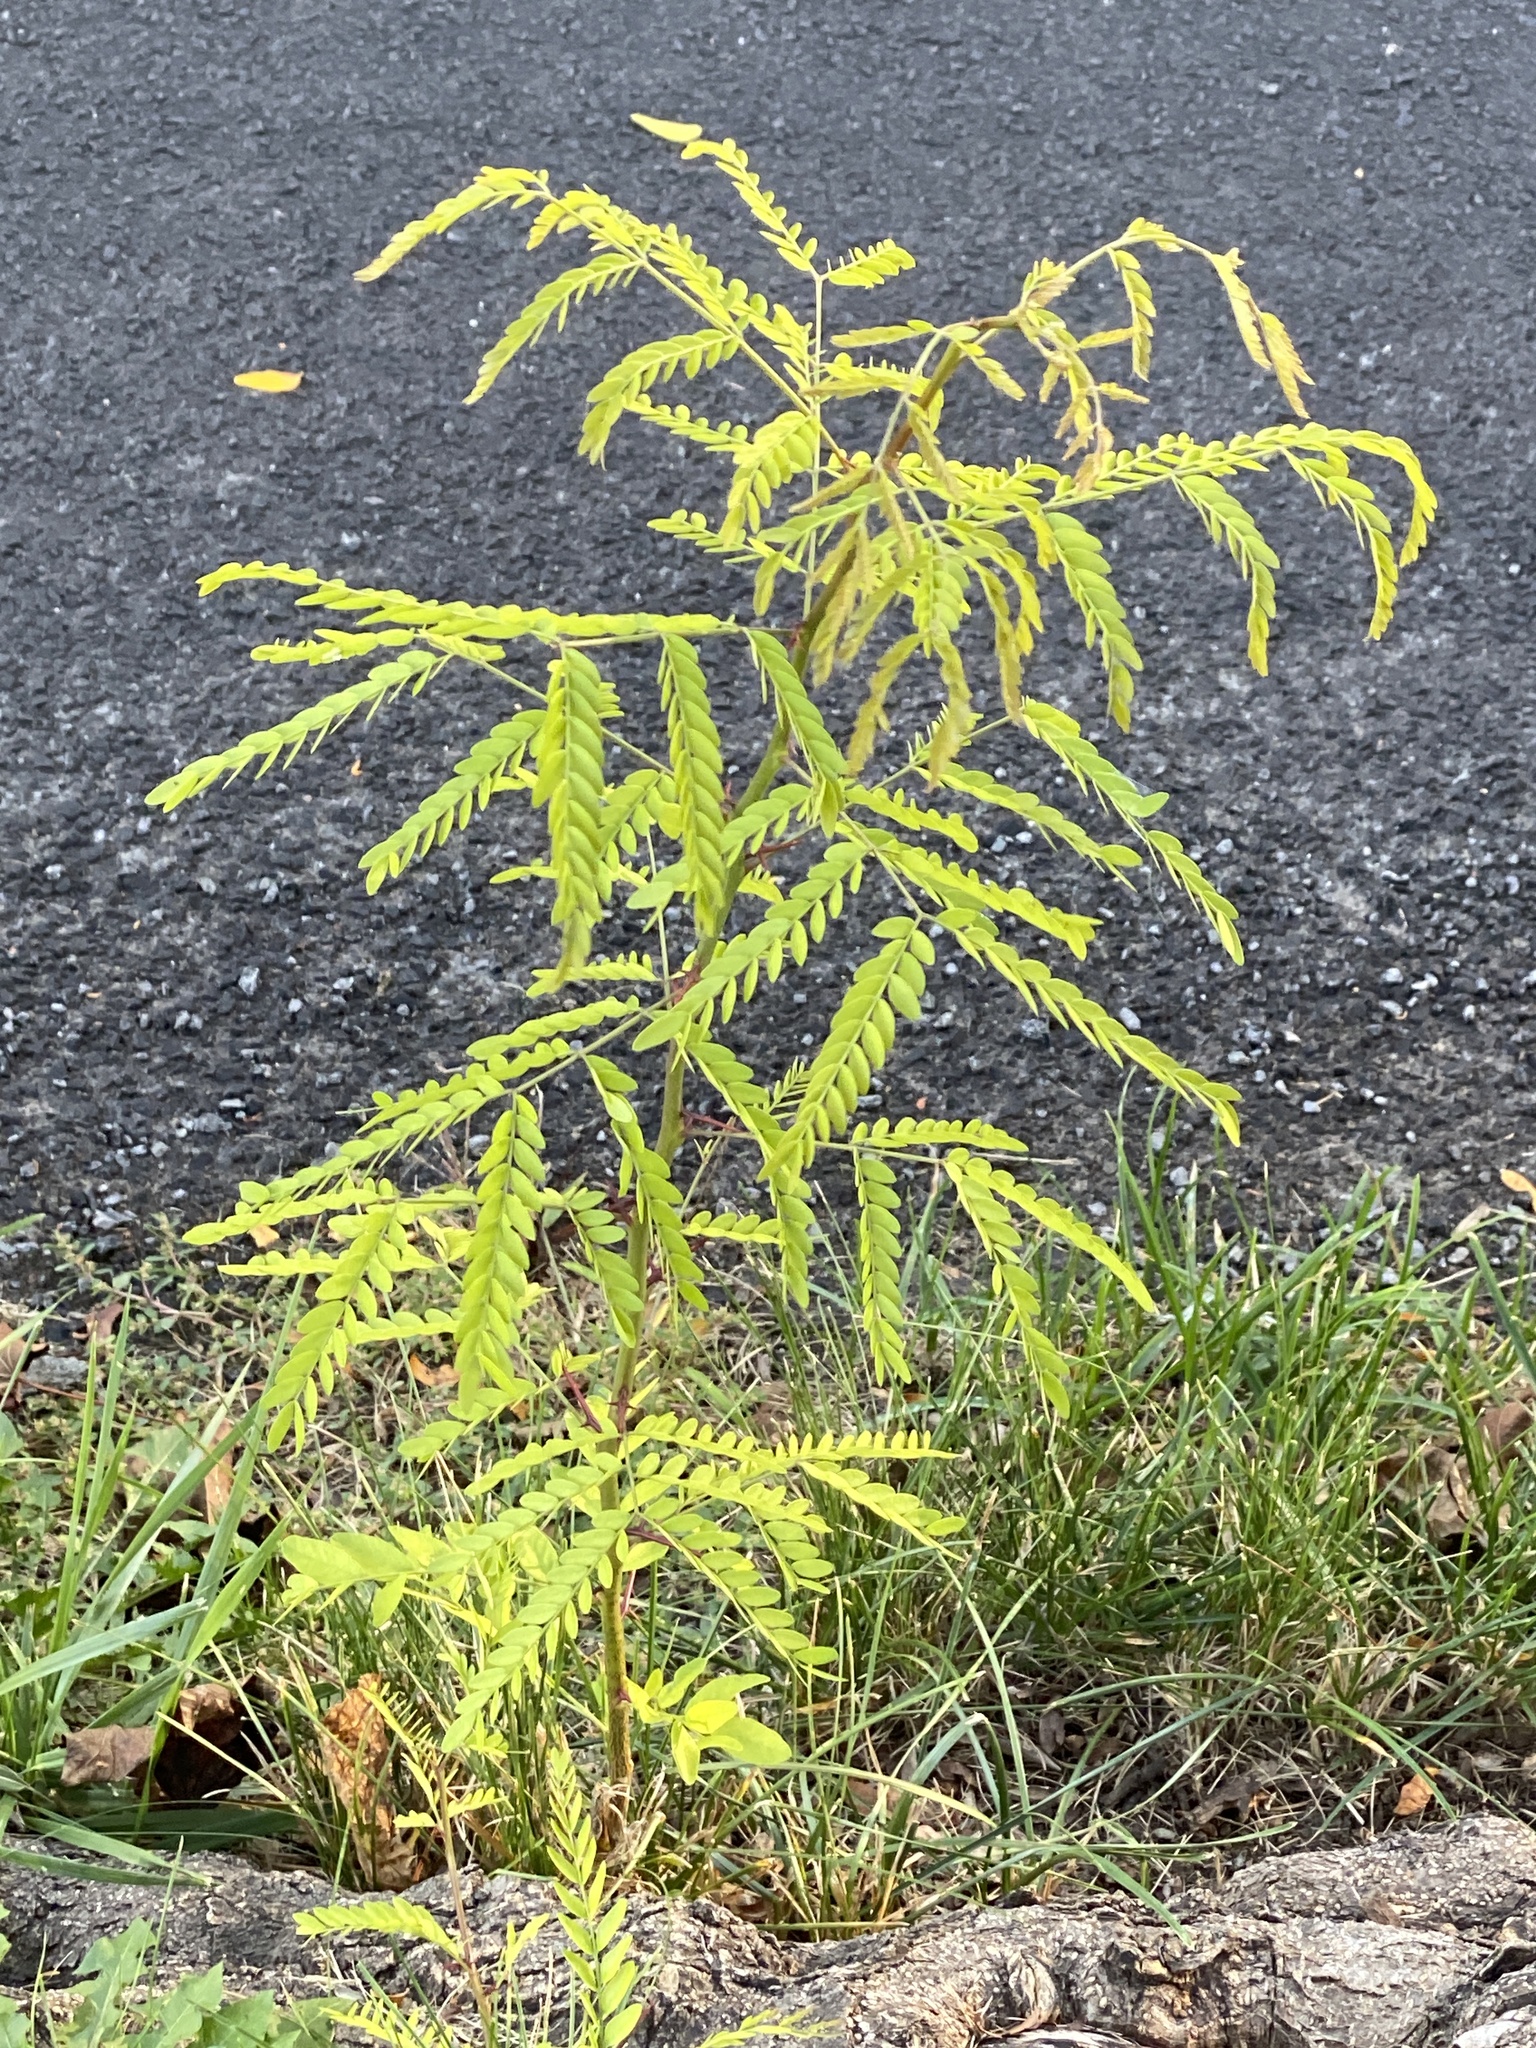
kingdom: Plantae
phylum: Tracheophyta
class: Magnoliopsida
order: Fabales
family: Fabaceae
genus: Gleditsia
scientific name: Gleditsia triacanthos
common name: Common honeylocust
